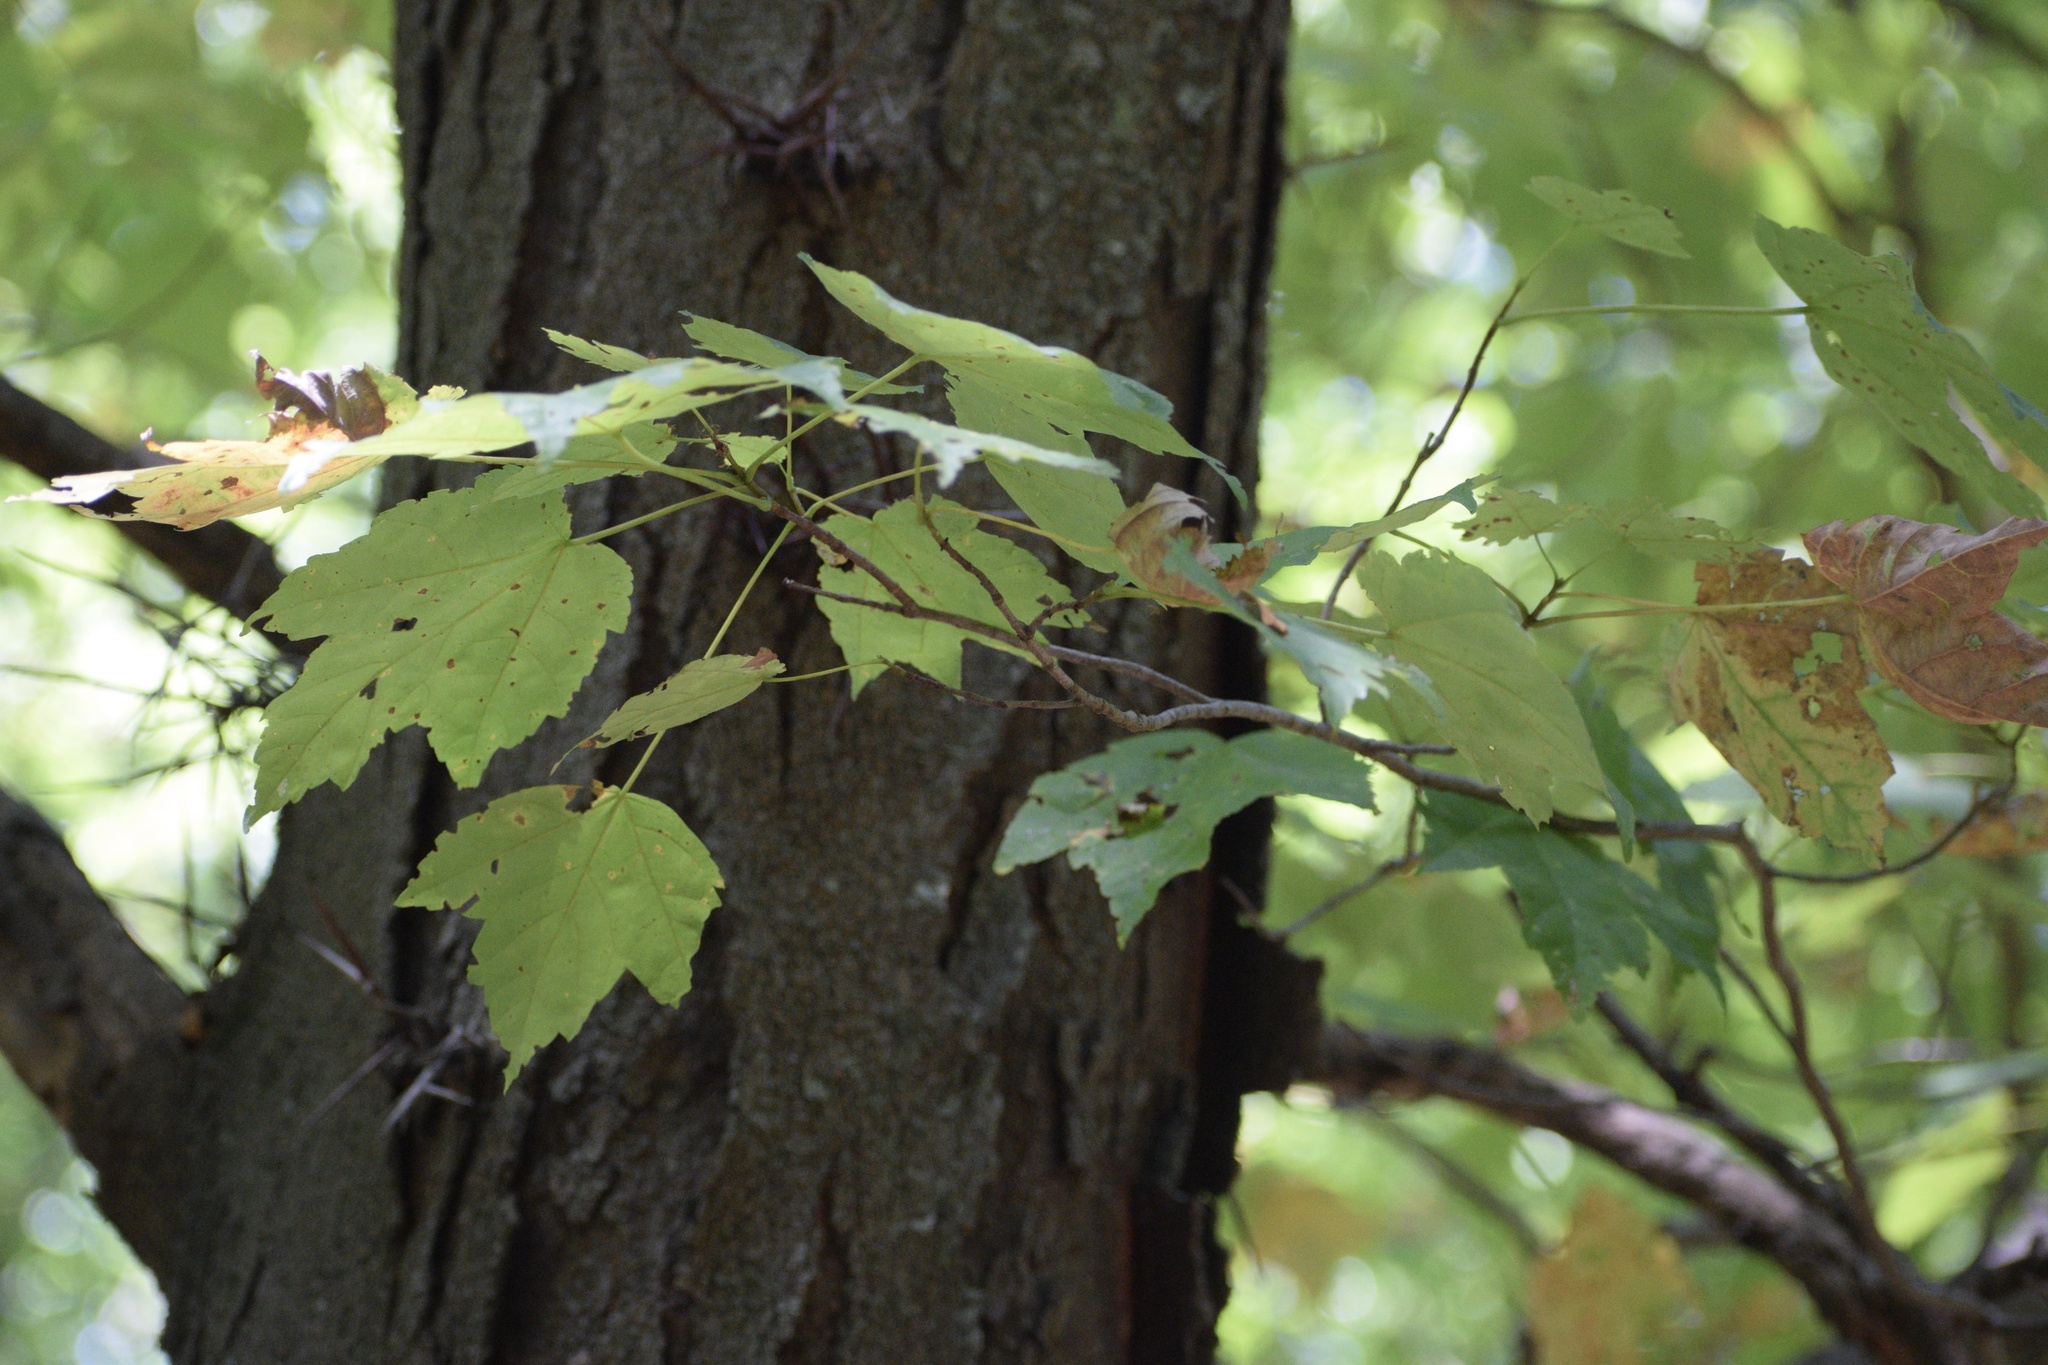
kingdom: Plantae
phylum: Tracheophyta
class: Magnoliopsida
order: Sapindales
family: Sapindaceae
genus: Acer
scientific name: Acer rubrum
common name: Red maple
